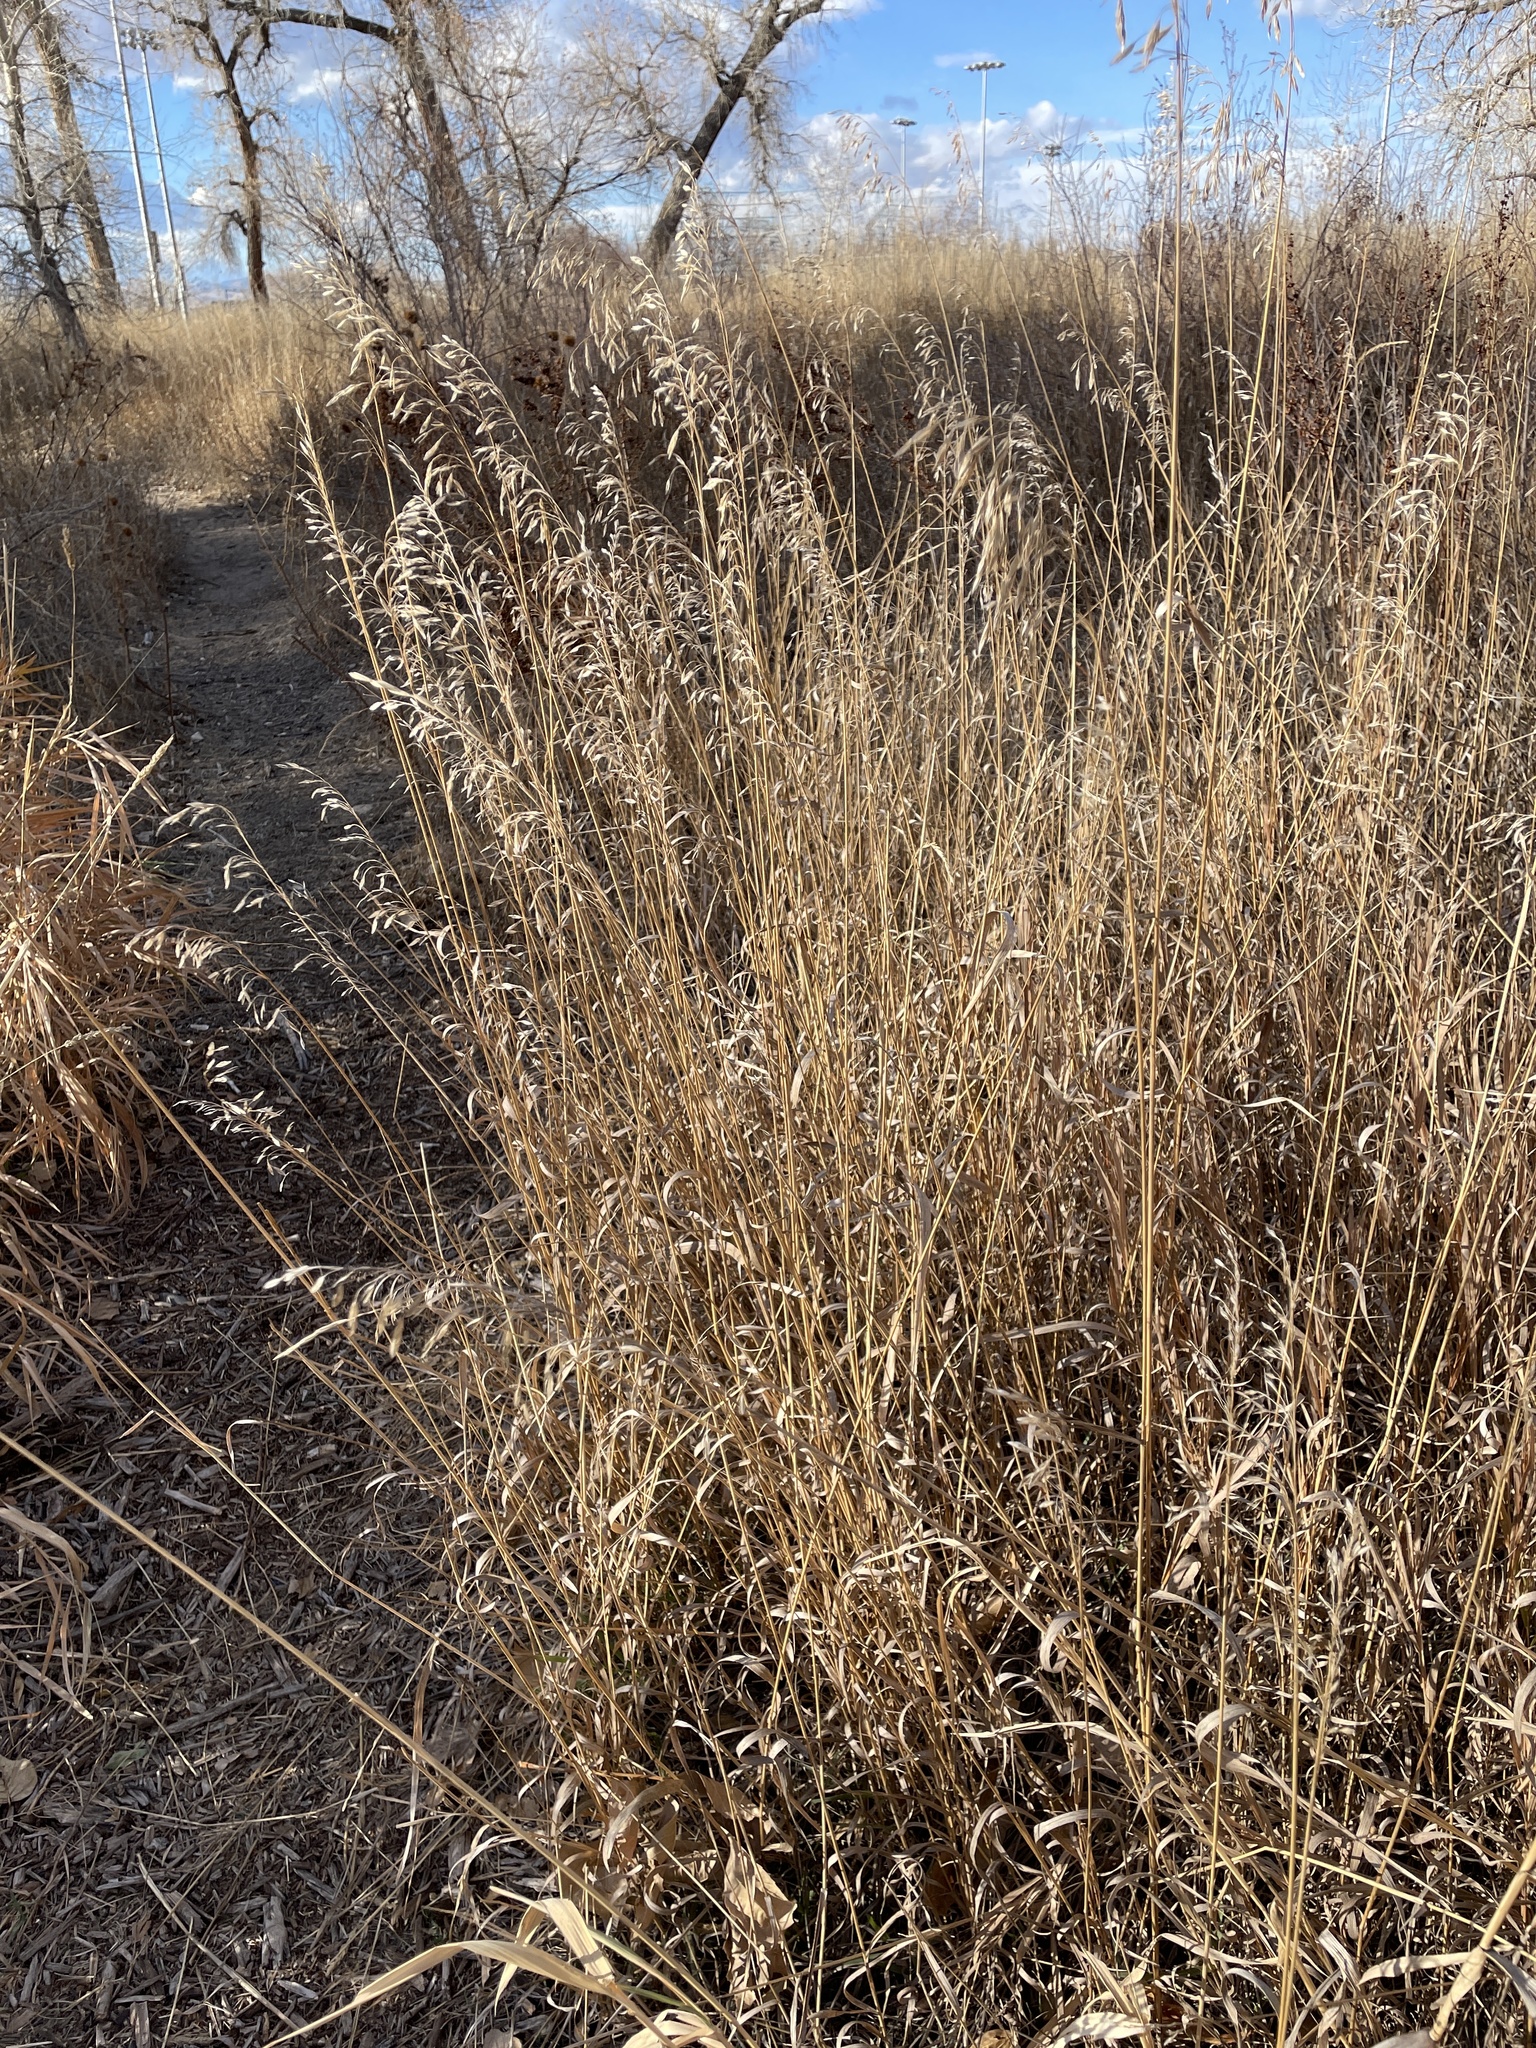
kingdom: Plantae
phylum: Tracheophyta
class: Liliopsida
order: Poales
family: Poaceae
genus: Bromus
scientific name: Bromus inermis
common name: Smooth brome
